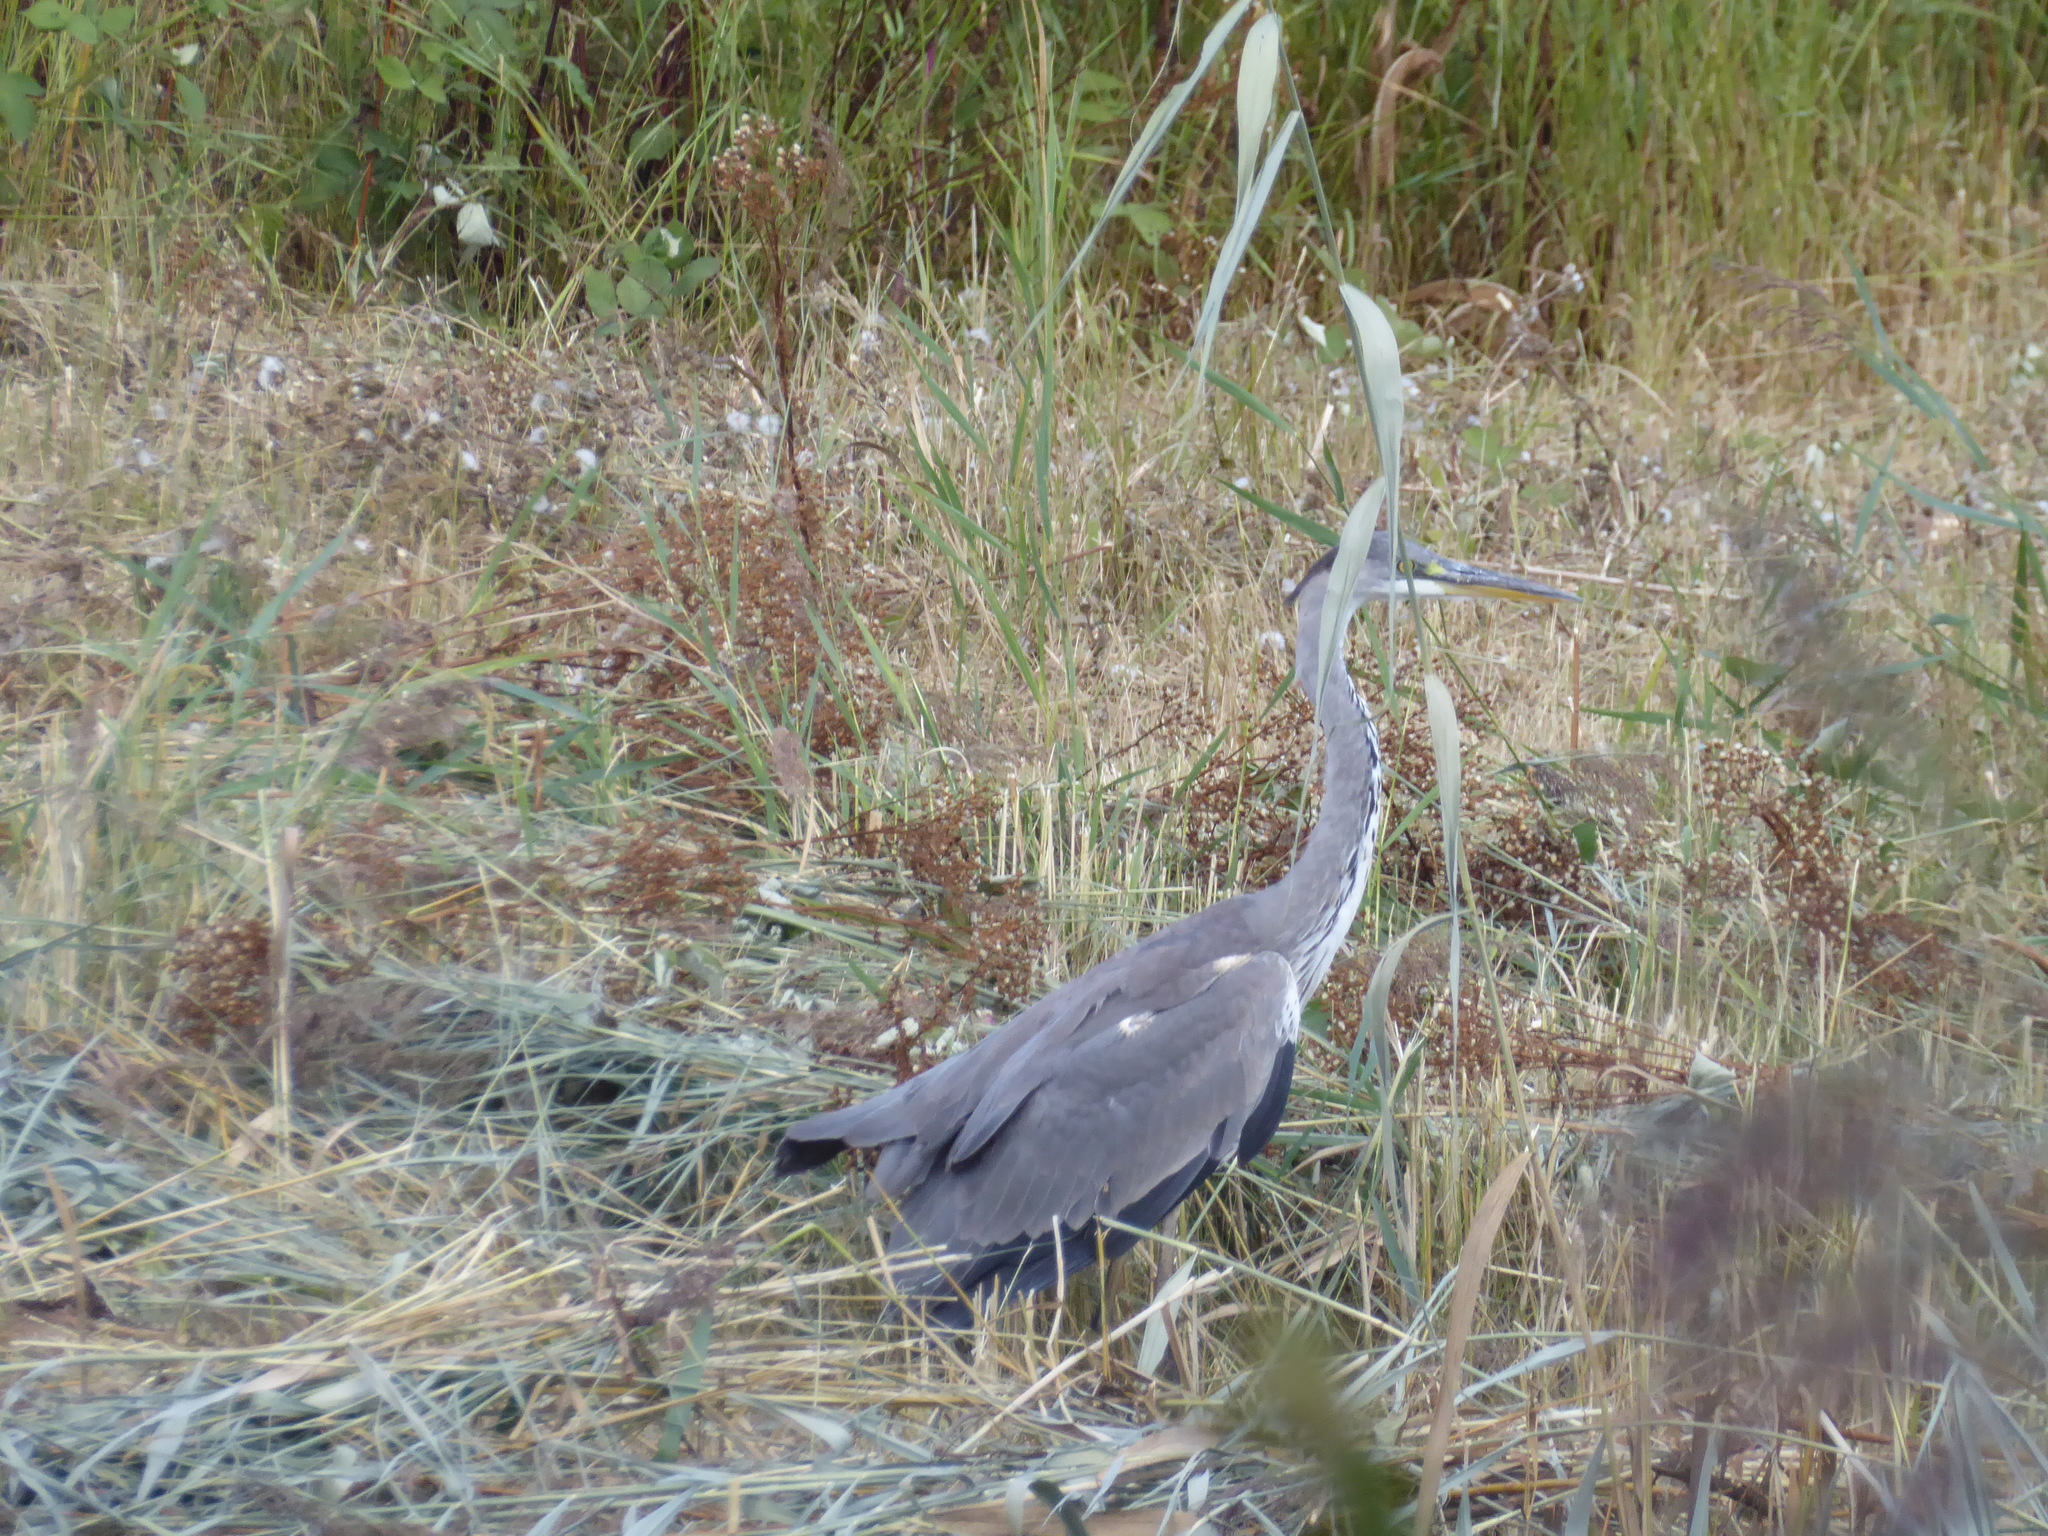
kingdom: Animalia
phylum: Chordata
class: Aves
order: Pelecaniformes
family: Ardeidae
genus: Ardea
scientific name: Ardea cinerea
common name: Grey heron
